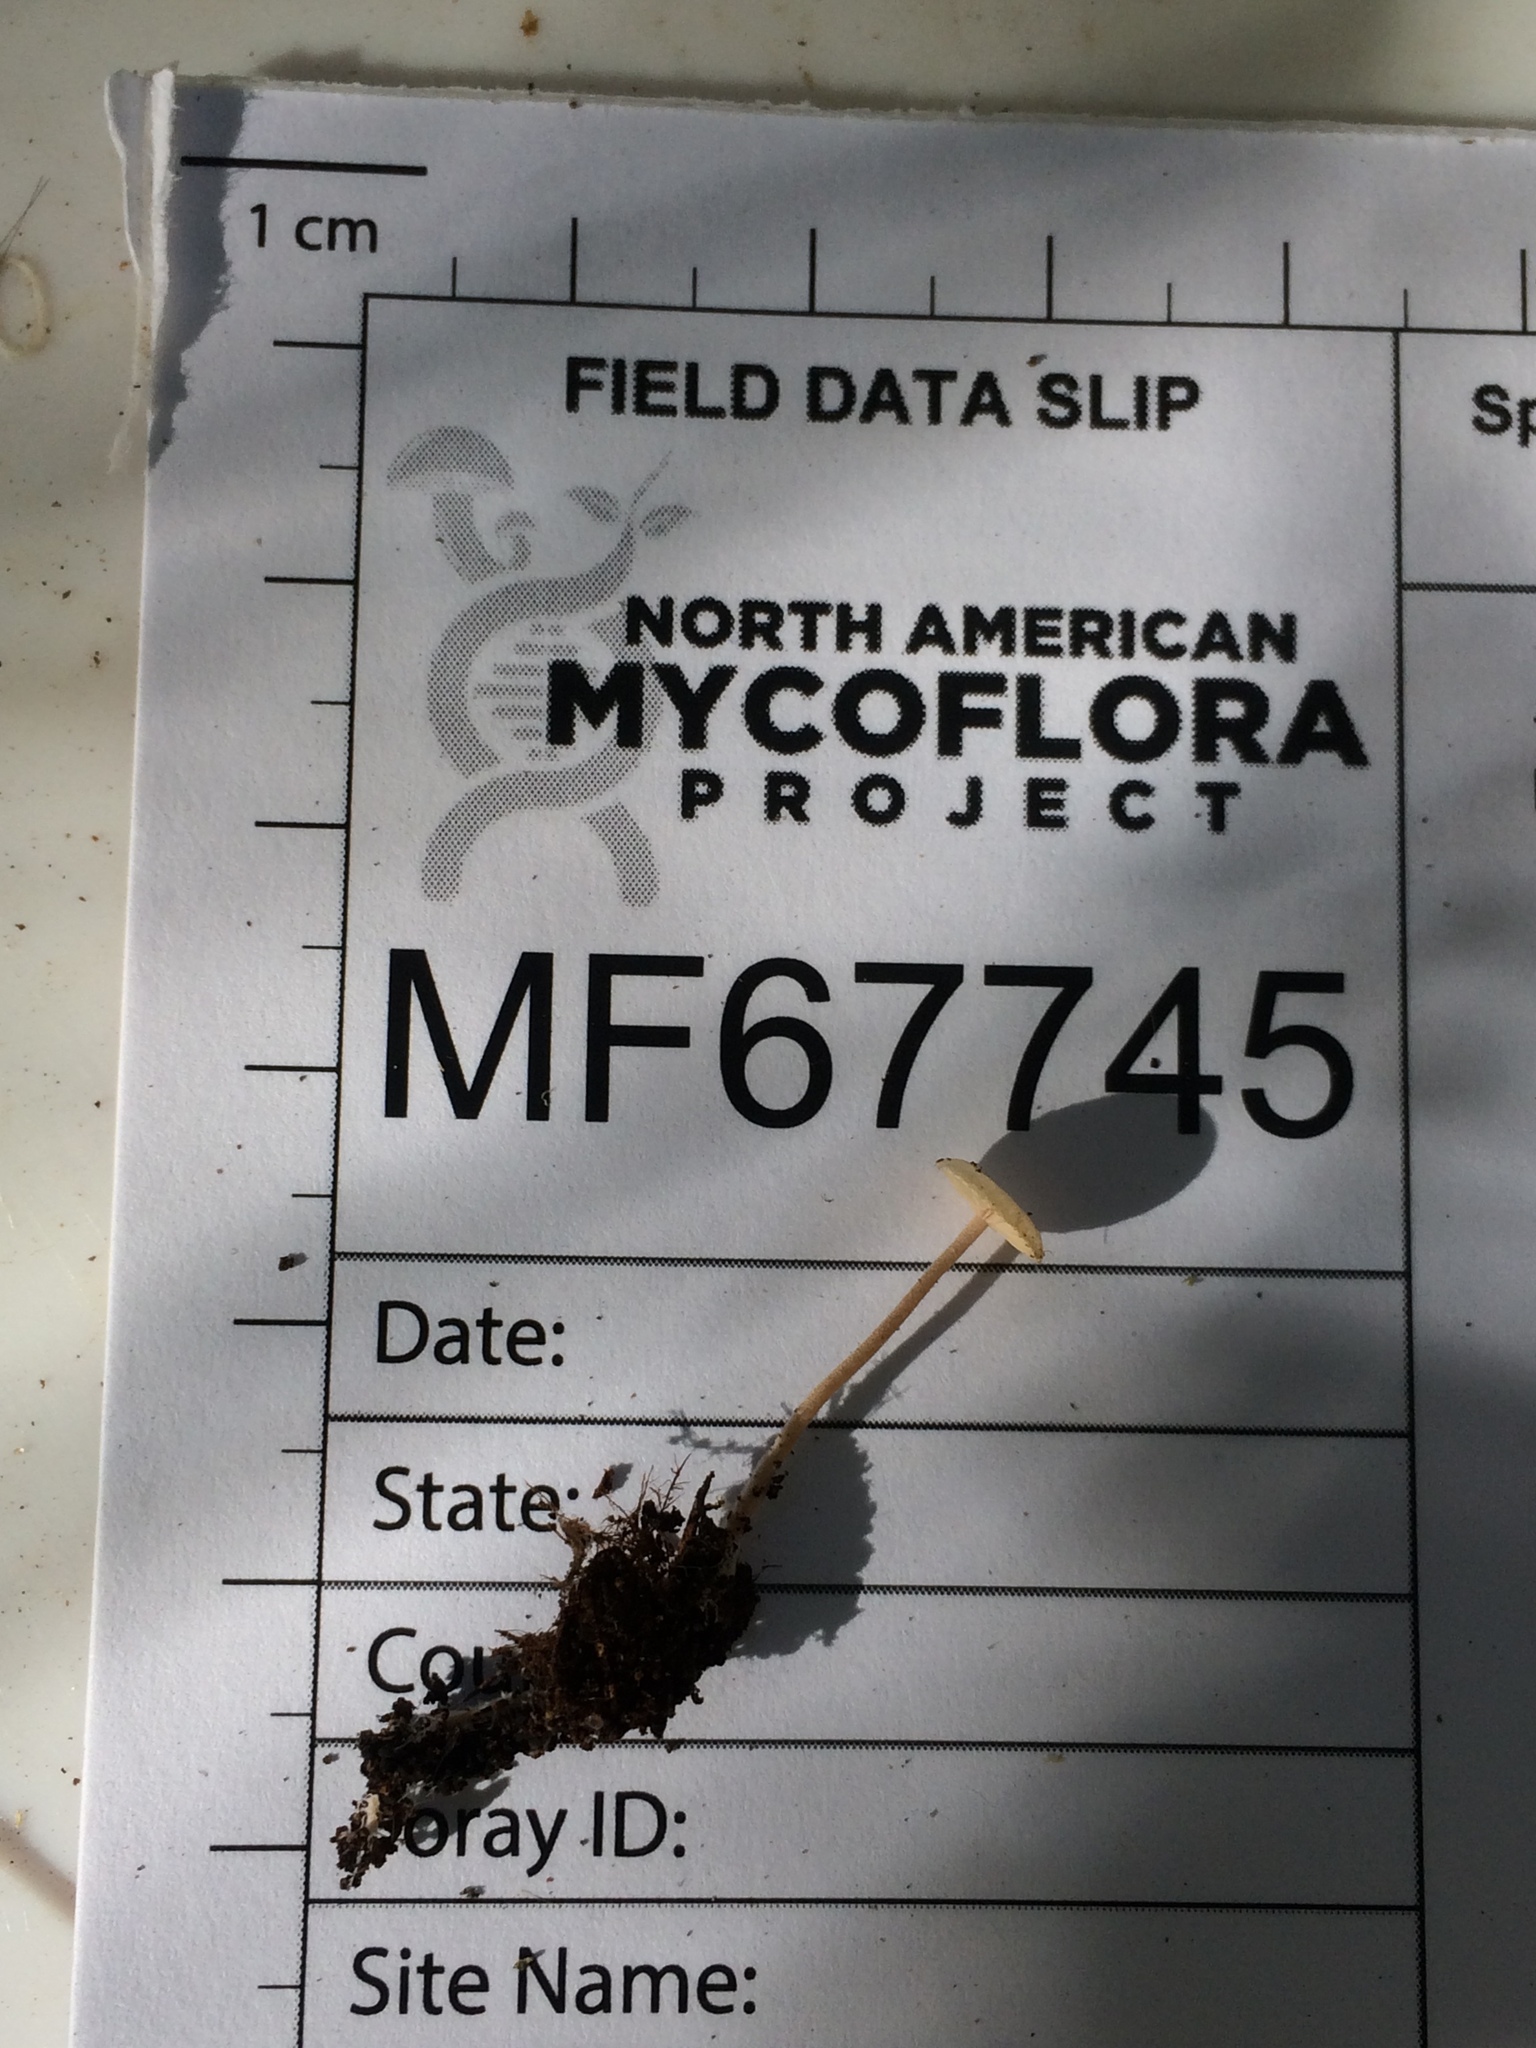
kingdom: Fungi
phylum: Basidiomycota
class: Agaricomycetes
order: Agaricales
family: Tricholomataceae
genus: Collybia
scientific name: Collybia cookei
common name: Splitpea shanklet
